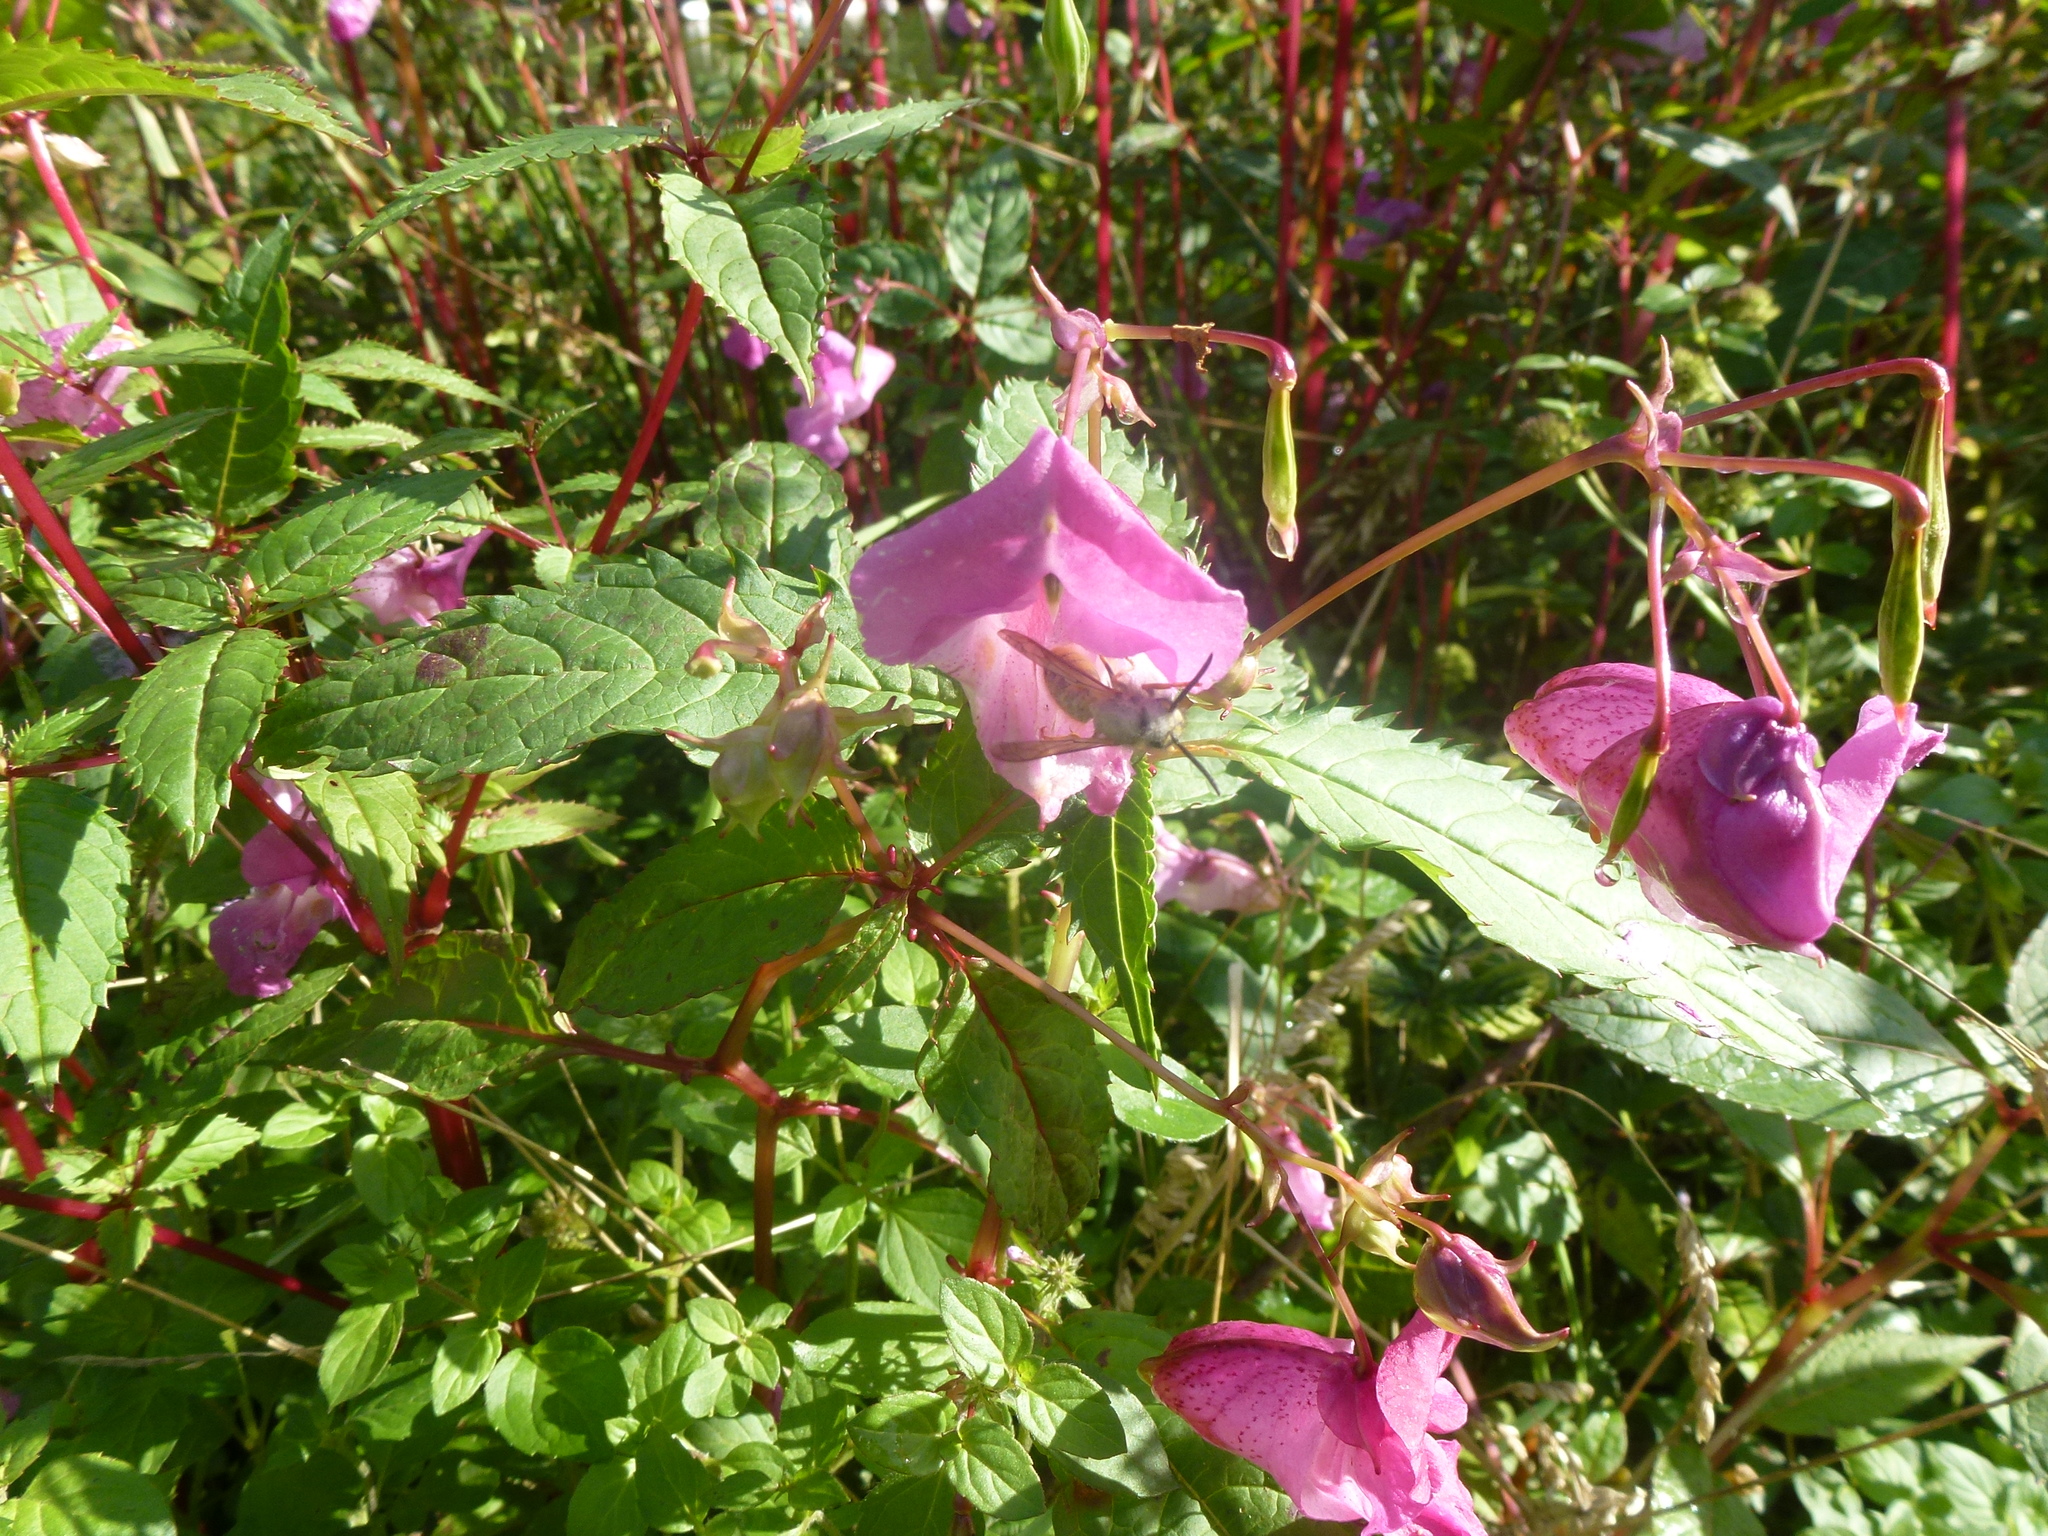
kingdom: Plantae
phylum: Tracheophyta
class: Magnoliopsida
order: Ericales
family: Balsaminaceae
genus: Impatiens
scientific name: Impatiens glandulifera
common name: Himalayan balsam
